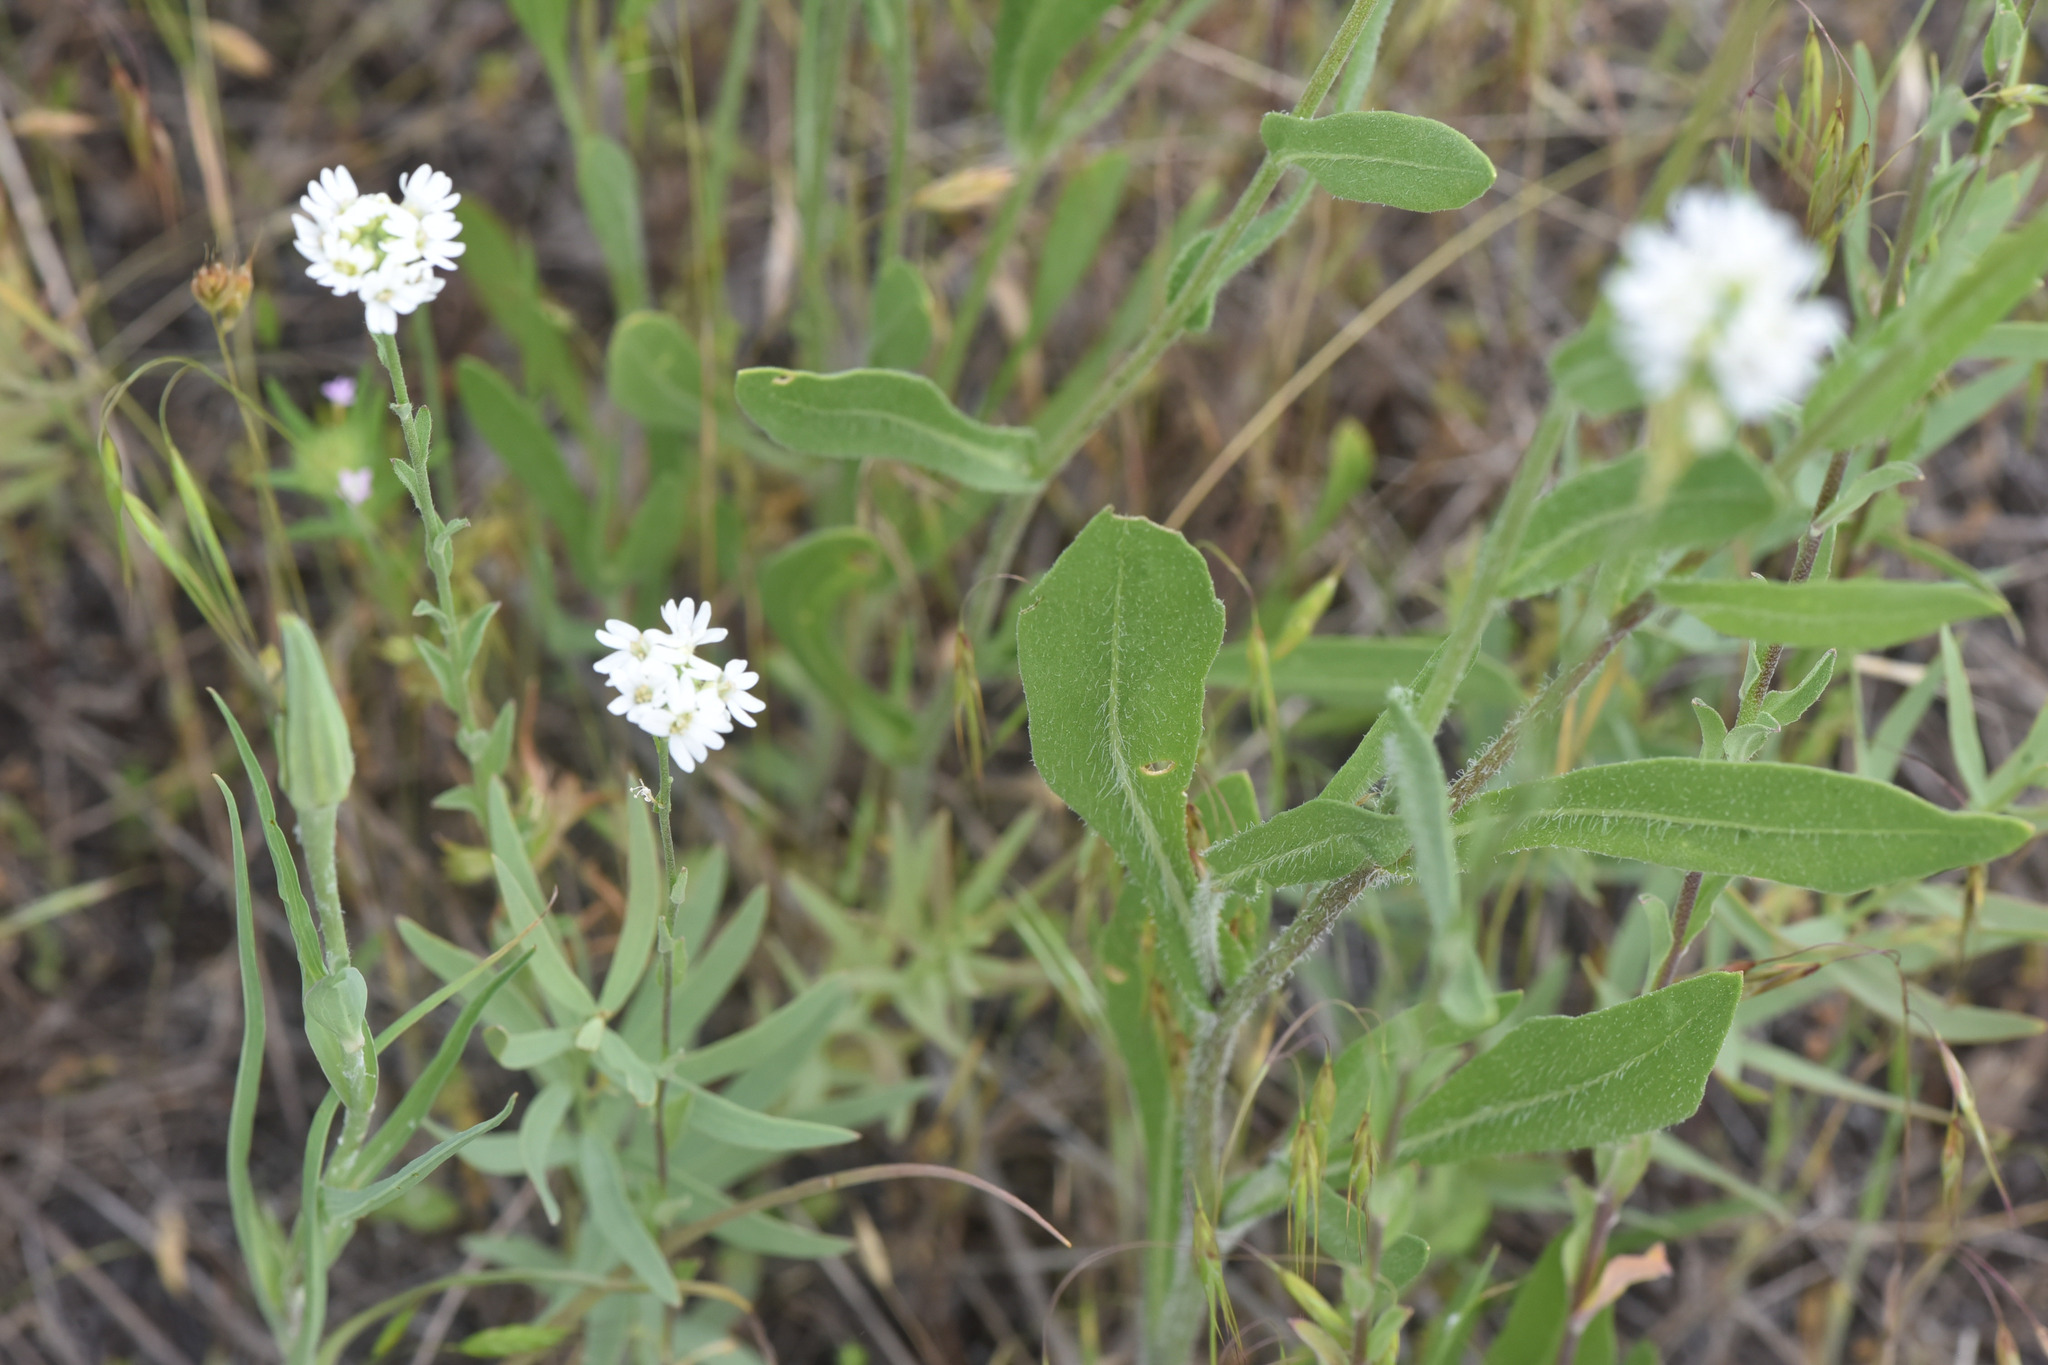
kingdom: Plantae
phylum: Tracheophyta
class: Magnoliopsida
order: Asterales
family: Asteraceae
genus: Gaillardia
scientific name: Gaillardia aristata
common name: Blanket-flower
